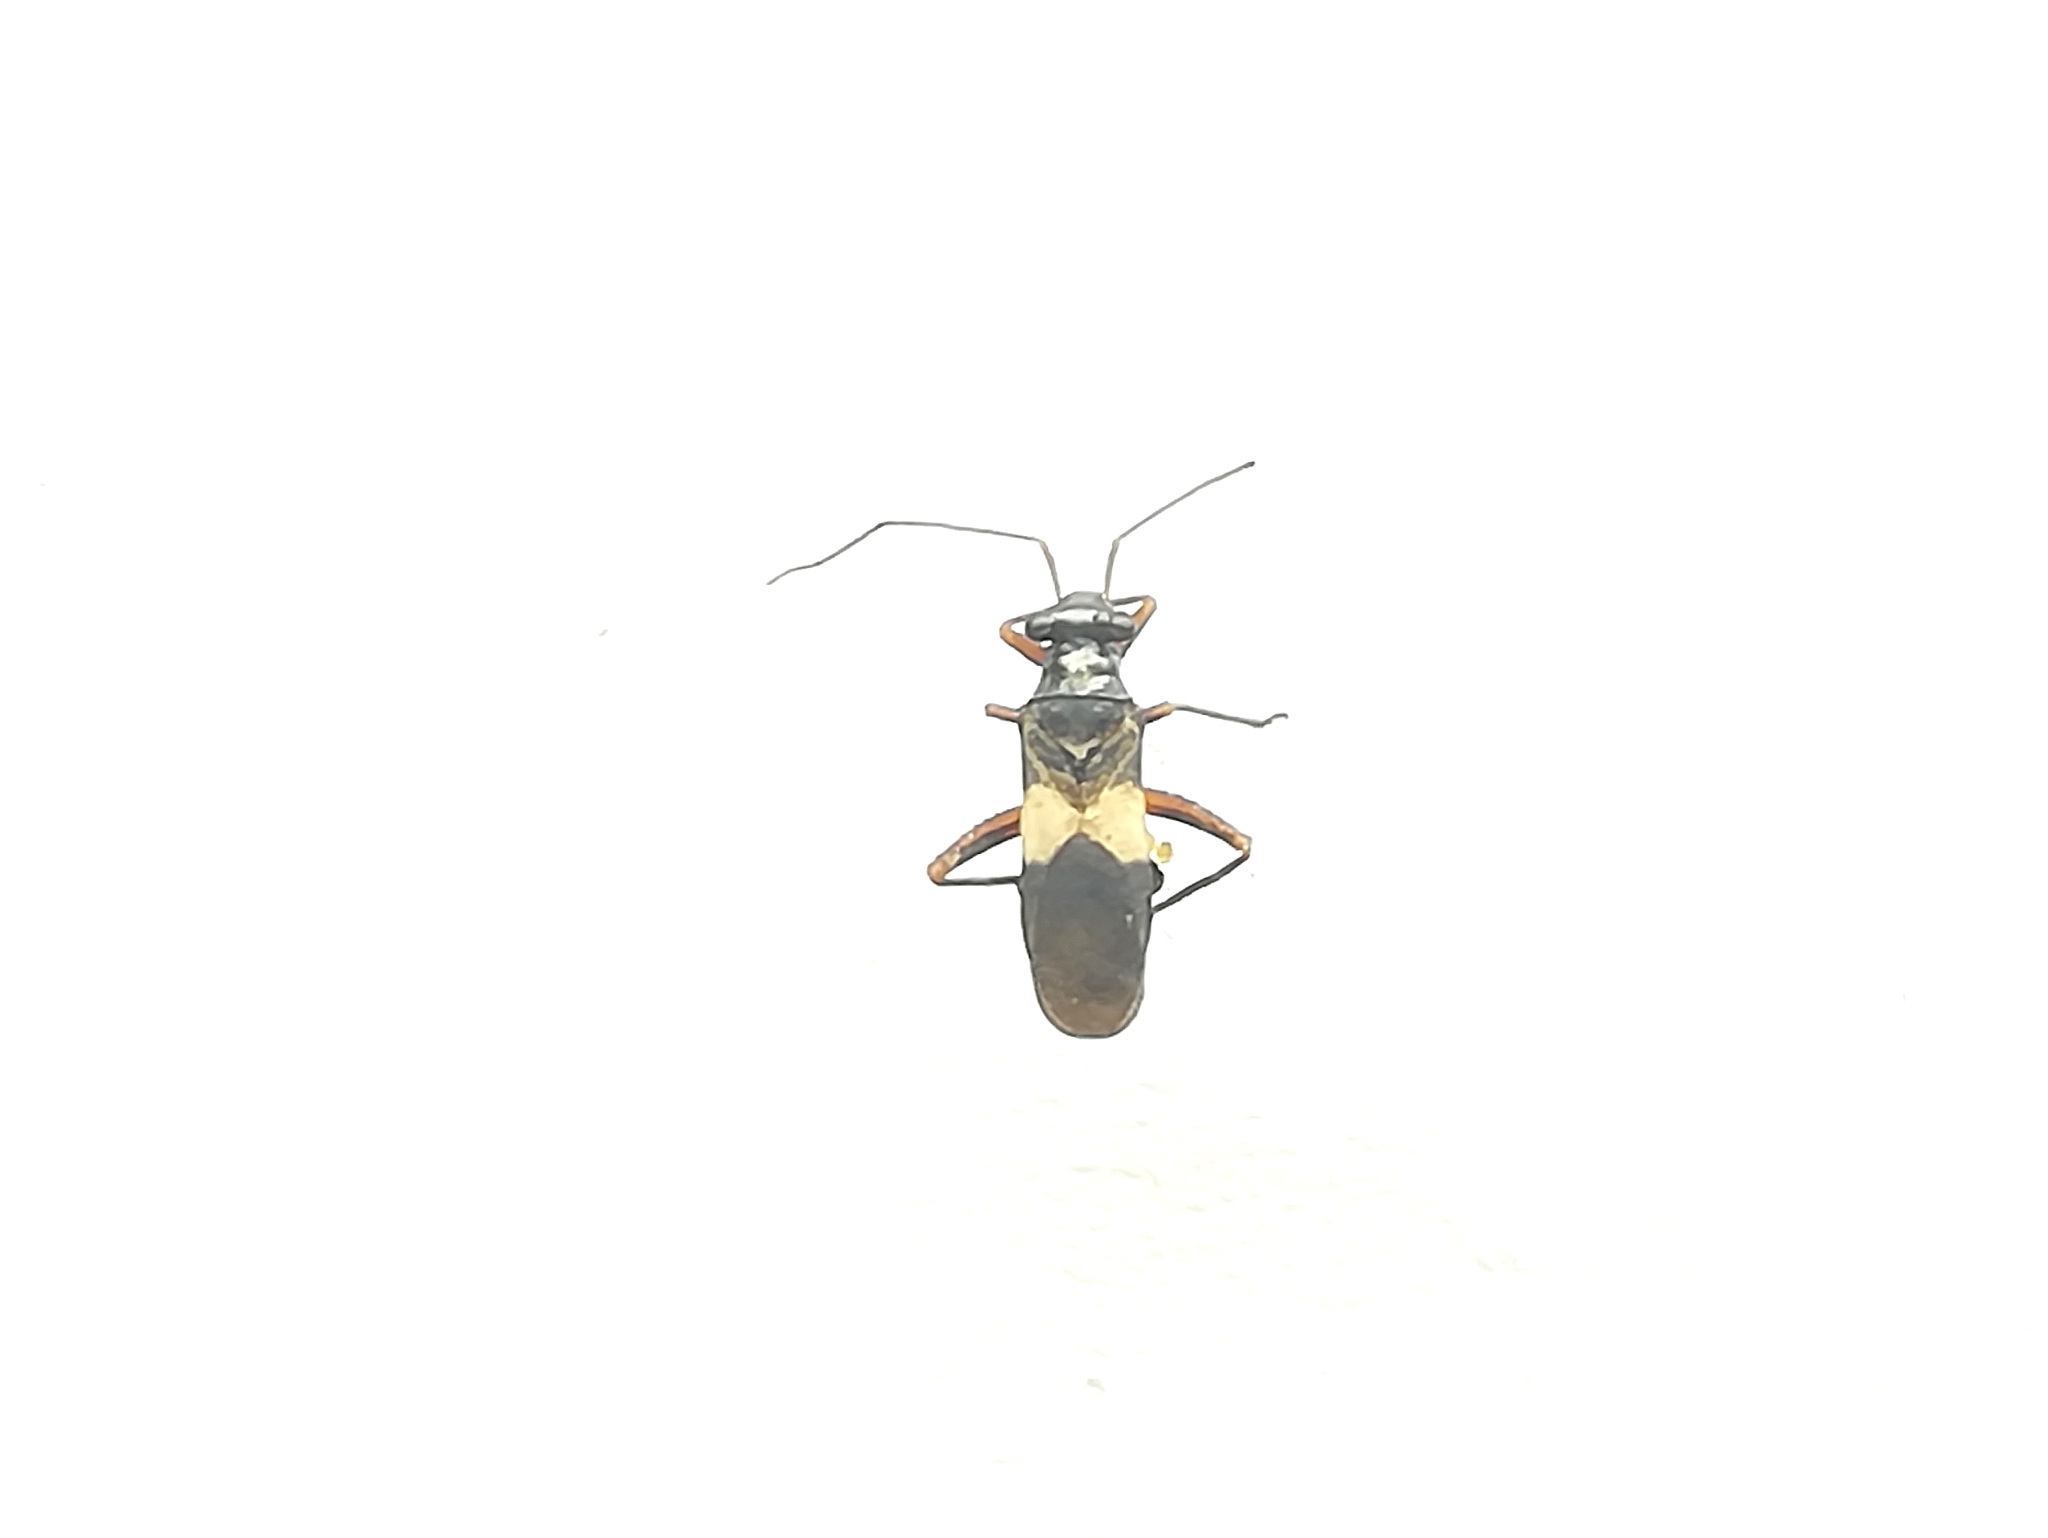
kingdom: Animalia
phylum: Arthropoda
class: Insecta
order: Hemiptera
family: Miridae
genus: Myrmecophyes
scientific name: Myrmecophyes alboornatus
